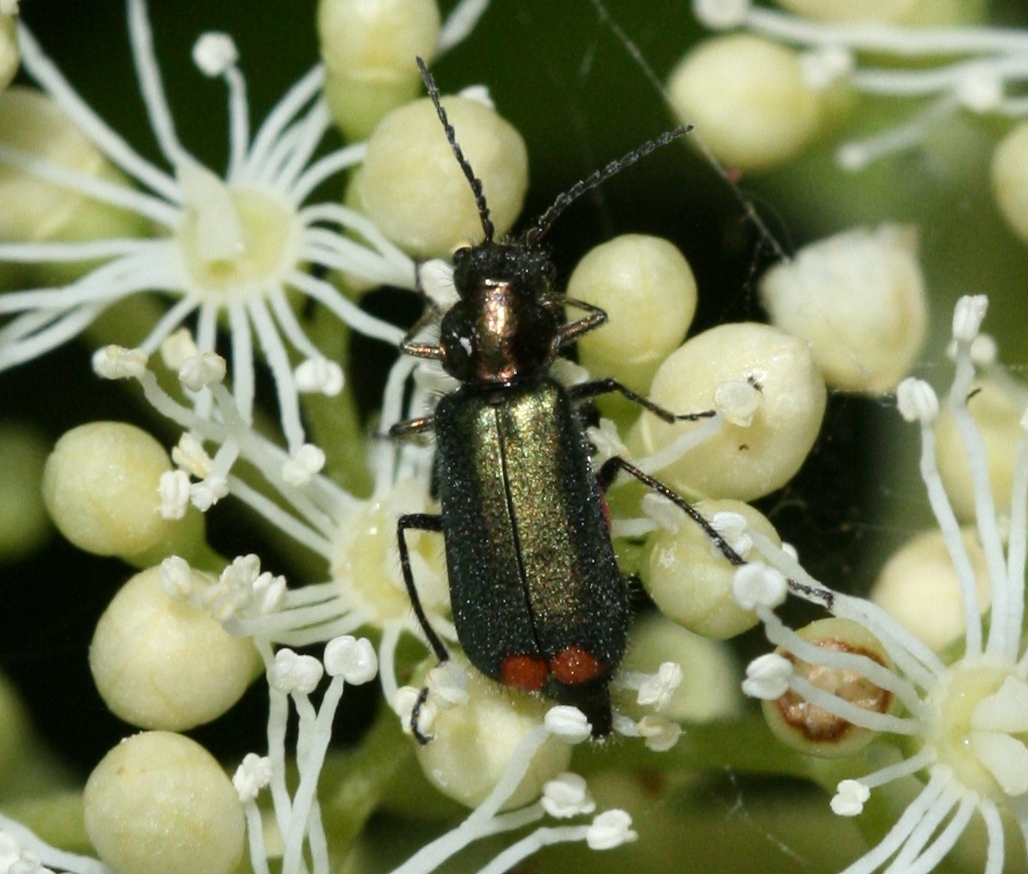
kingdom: Animalia
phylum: Arthropoda
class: Insecta
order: Coleoptera
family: Melyridae
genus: Malachius
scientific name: Malachius bipustulatus
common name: Malachite beetle
